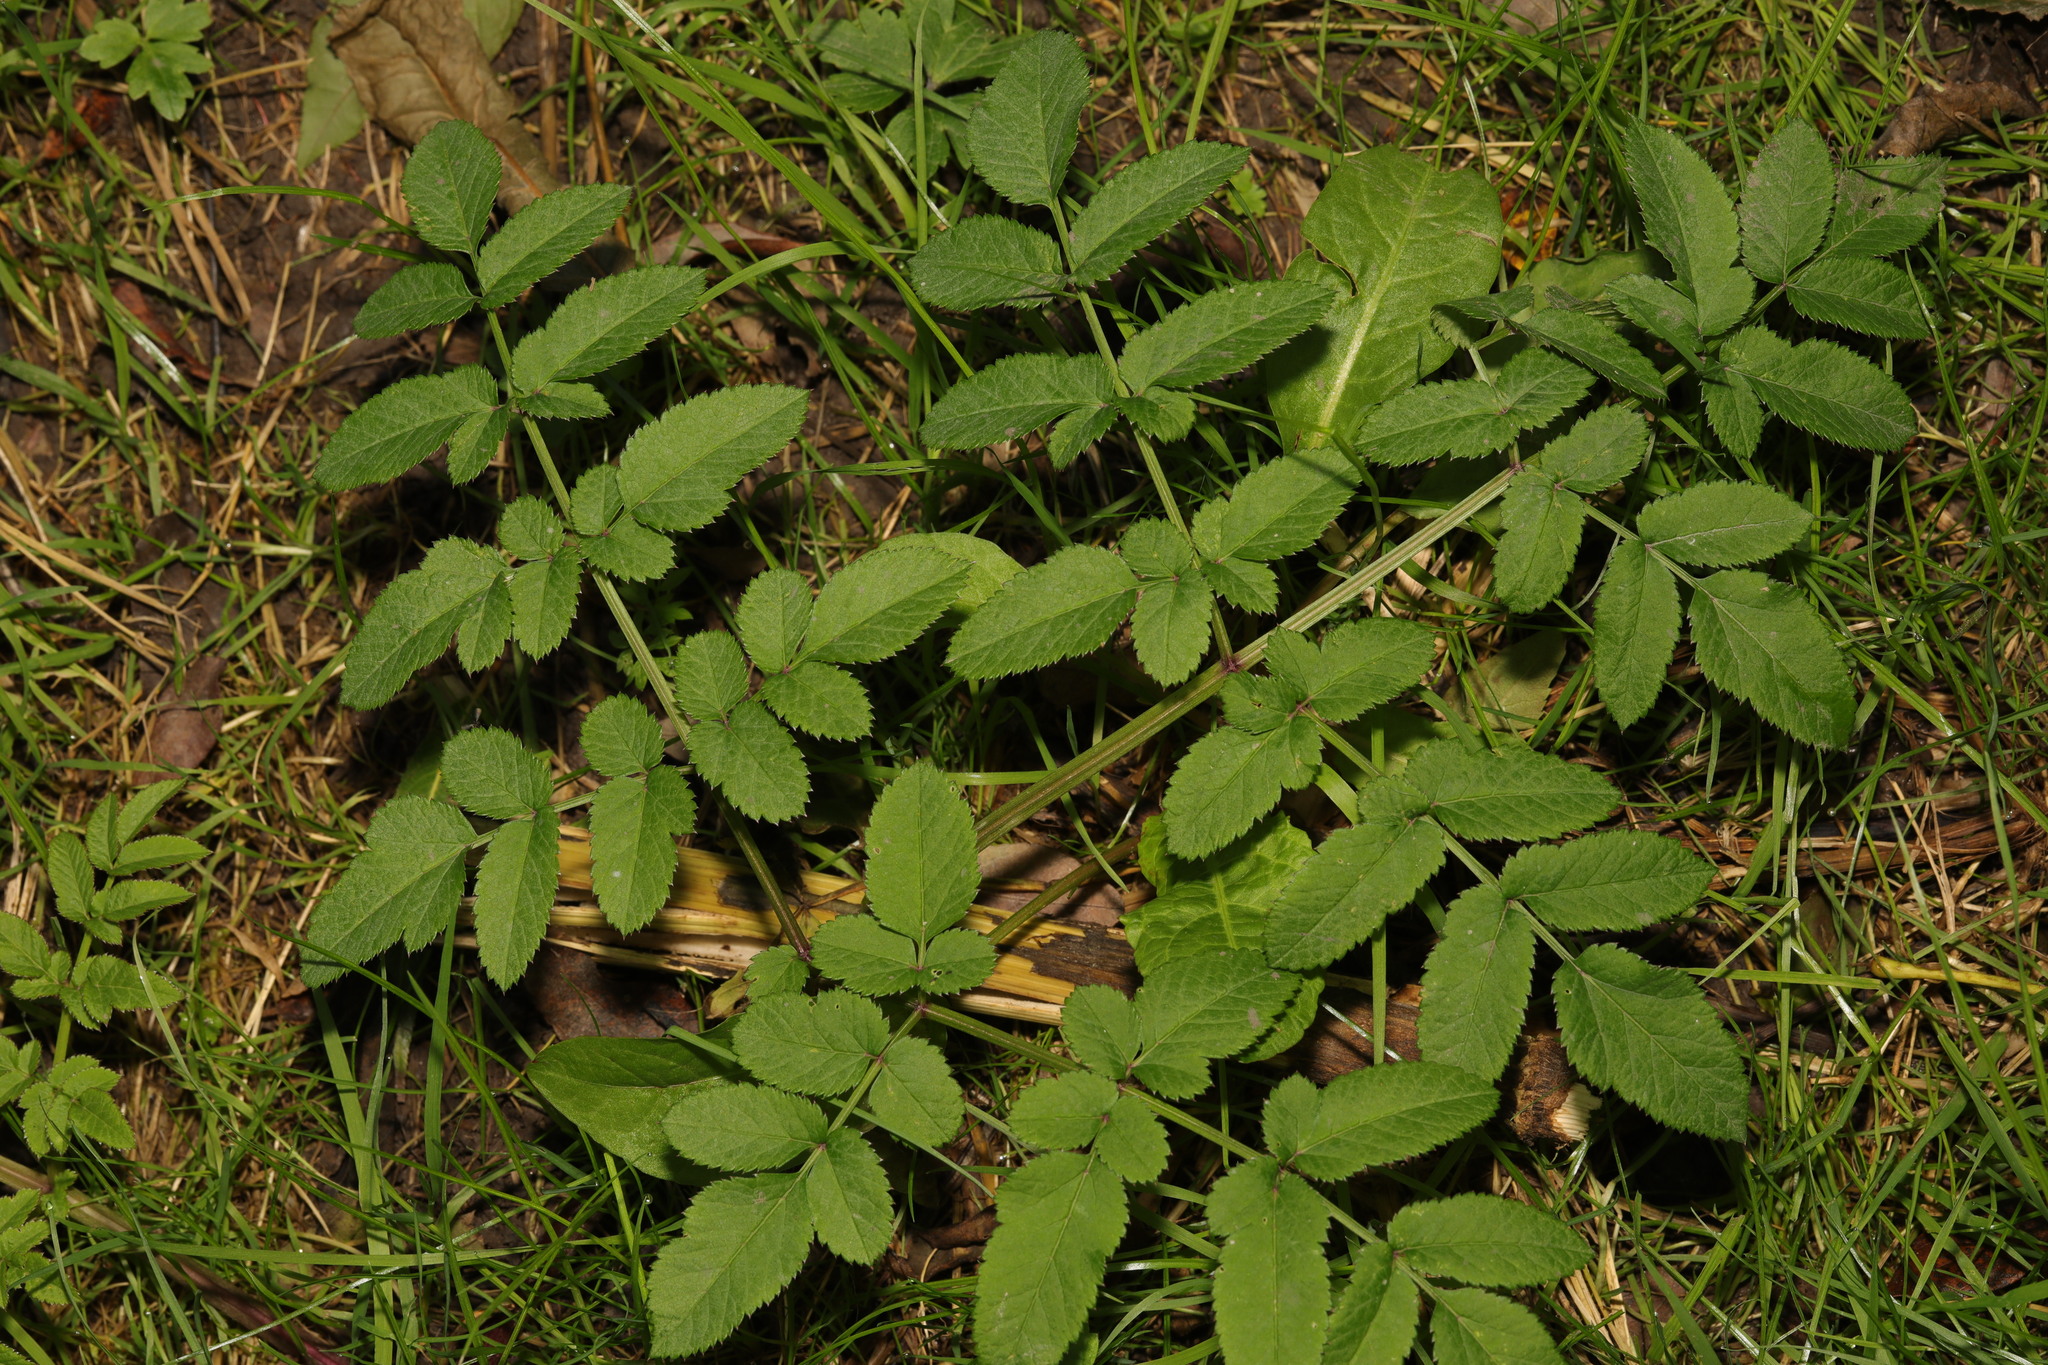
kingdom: Plantae
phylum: Tracheophyta
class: Magnoliopsida
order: Apiales
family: Apiaceae
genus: Angelica
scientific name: Angelica sylvestris
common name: Wild angelica
